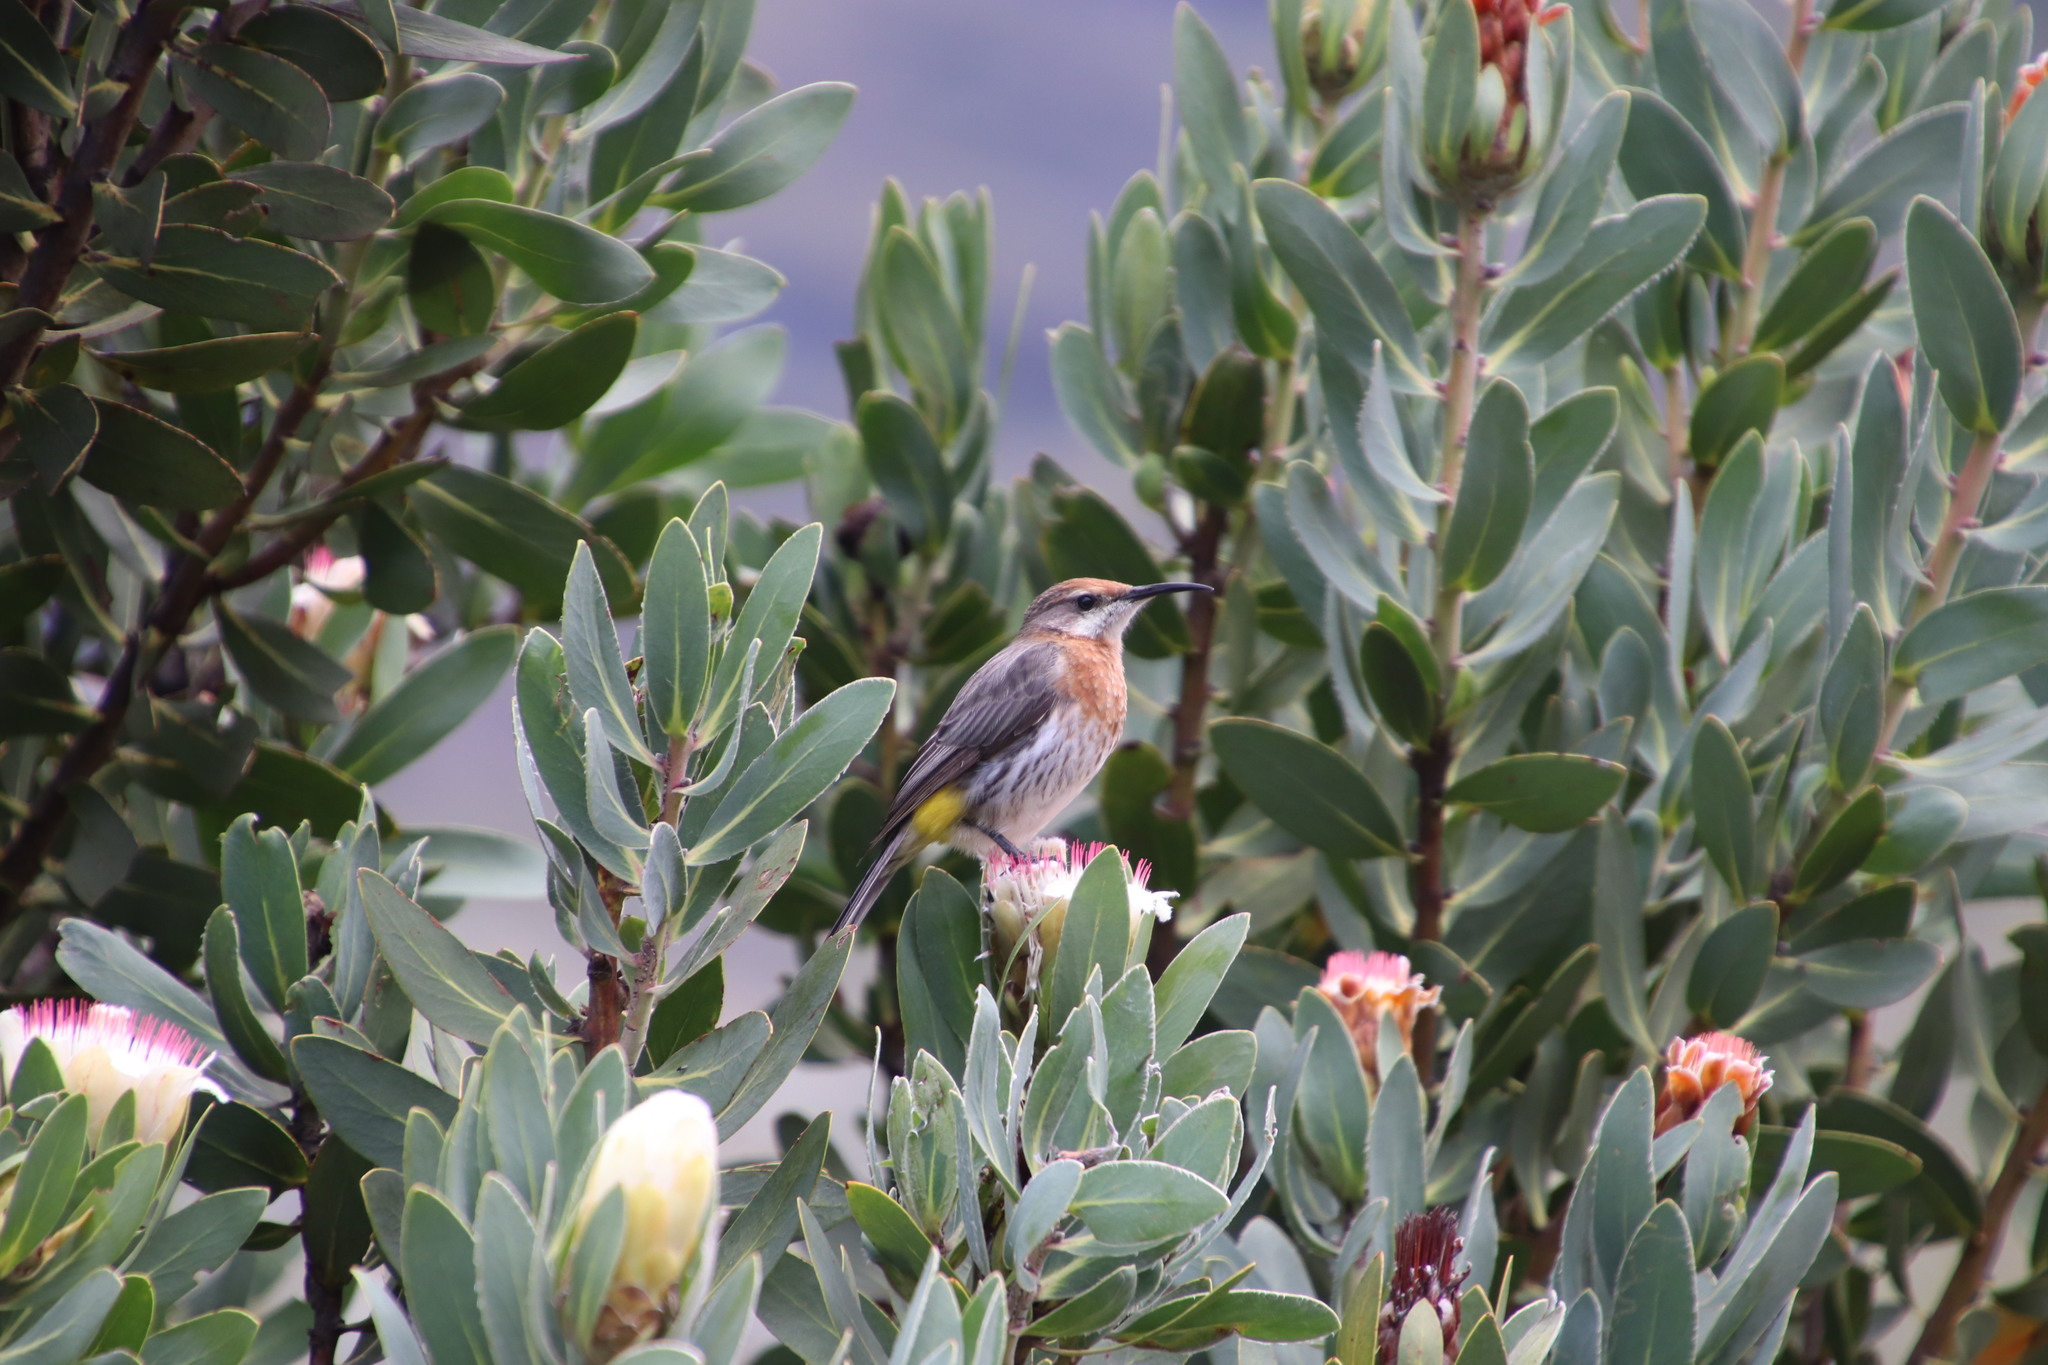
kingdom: Animalia
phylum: Chordata
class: Aves
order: Passeriformes
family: Promeropidae
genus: Promerops
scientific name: Promerops gurneyi
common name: Gurney's sugarbird
